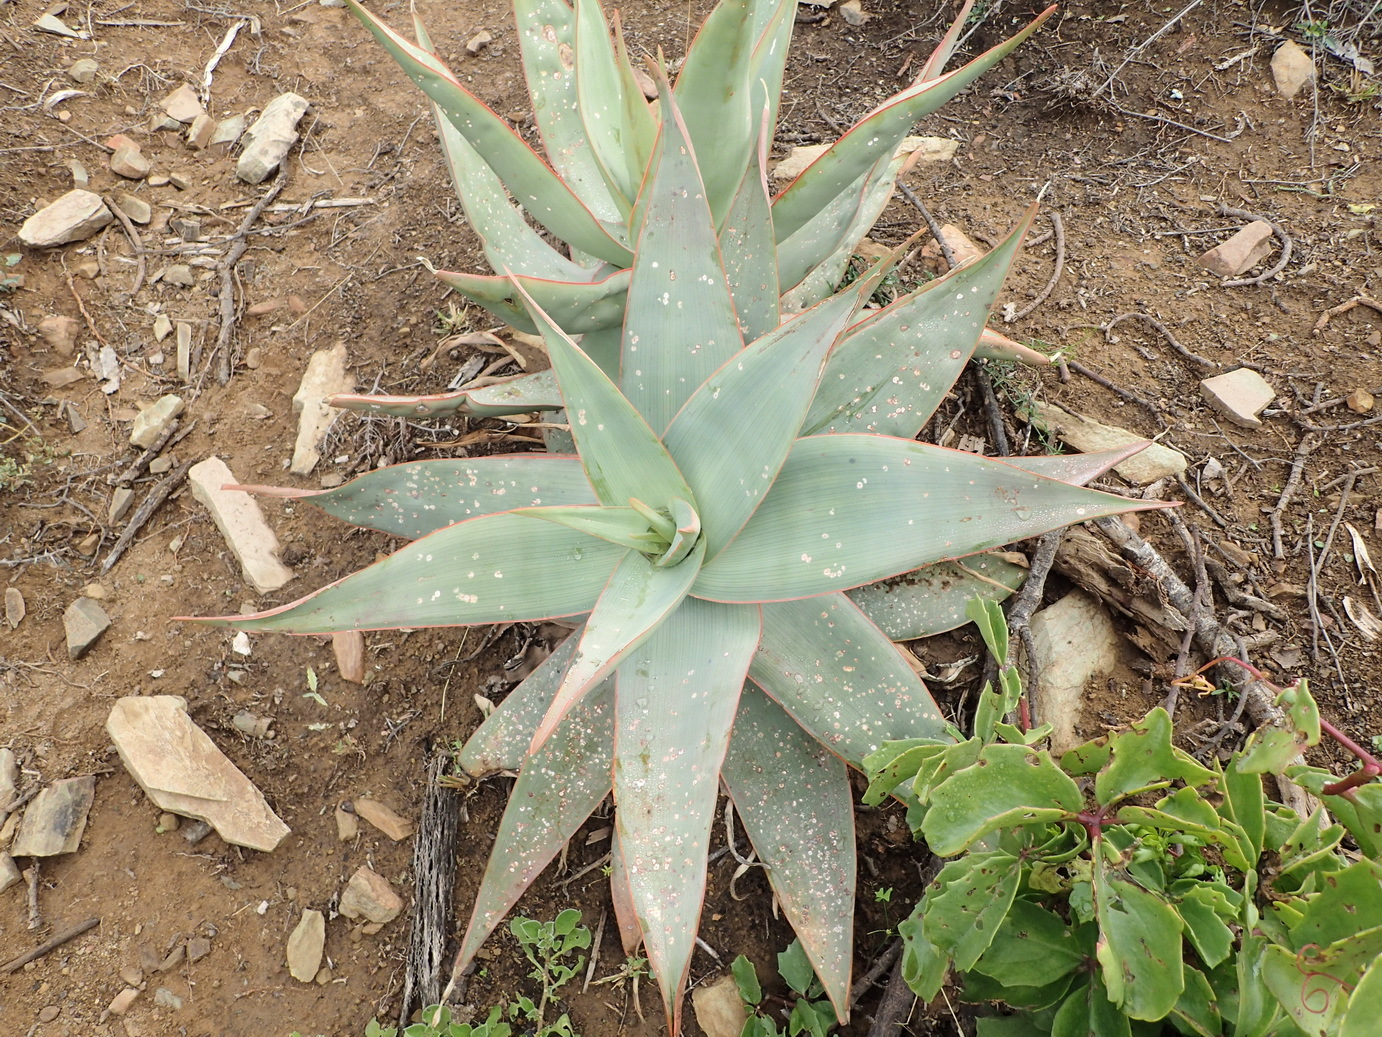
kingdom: Plantae
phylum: Tracheophyta
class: Liliopsida
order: Asparagales
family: Asphodelaceae
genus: Aloe
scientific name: Aloe striata
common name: Coral aloe
